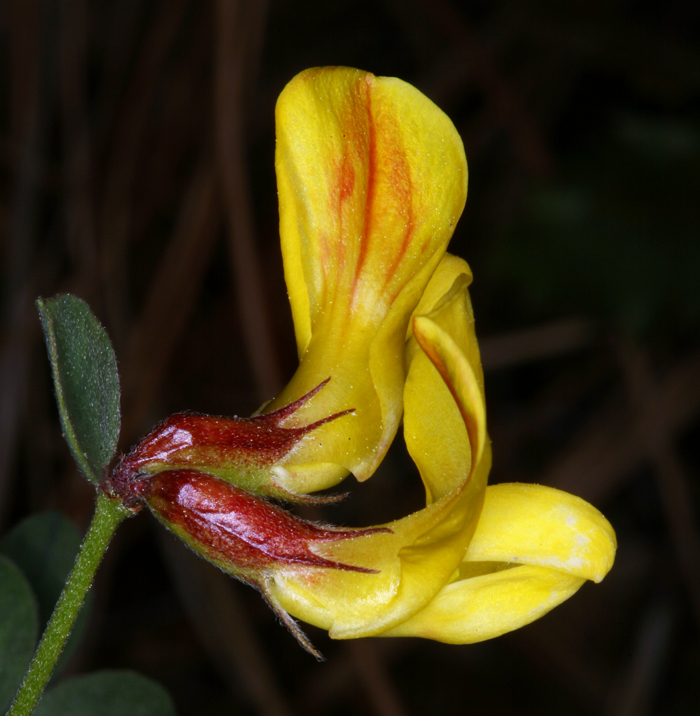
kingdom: Plantae
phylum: Tracheophyta
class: Magnoliopsida
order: Fabales
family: Fabaceae
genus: Acmispon
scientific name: Acmispon grandiflorus
